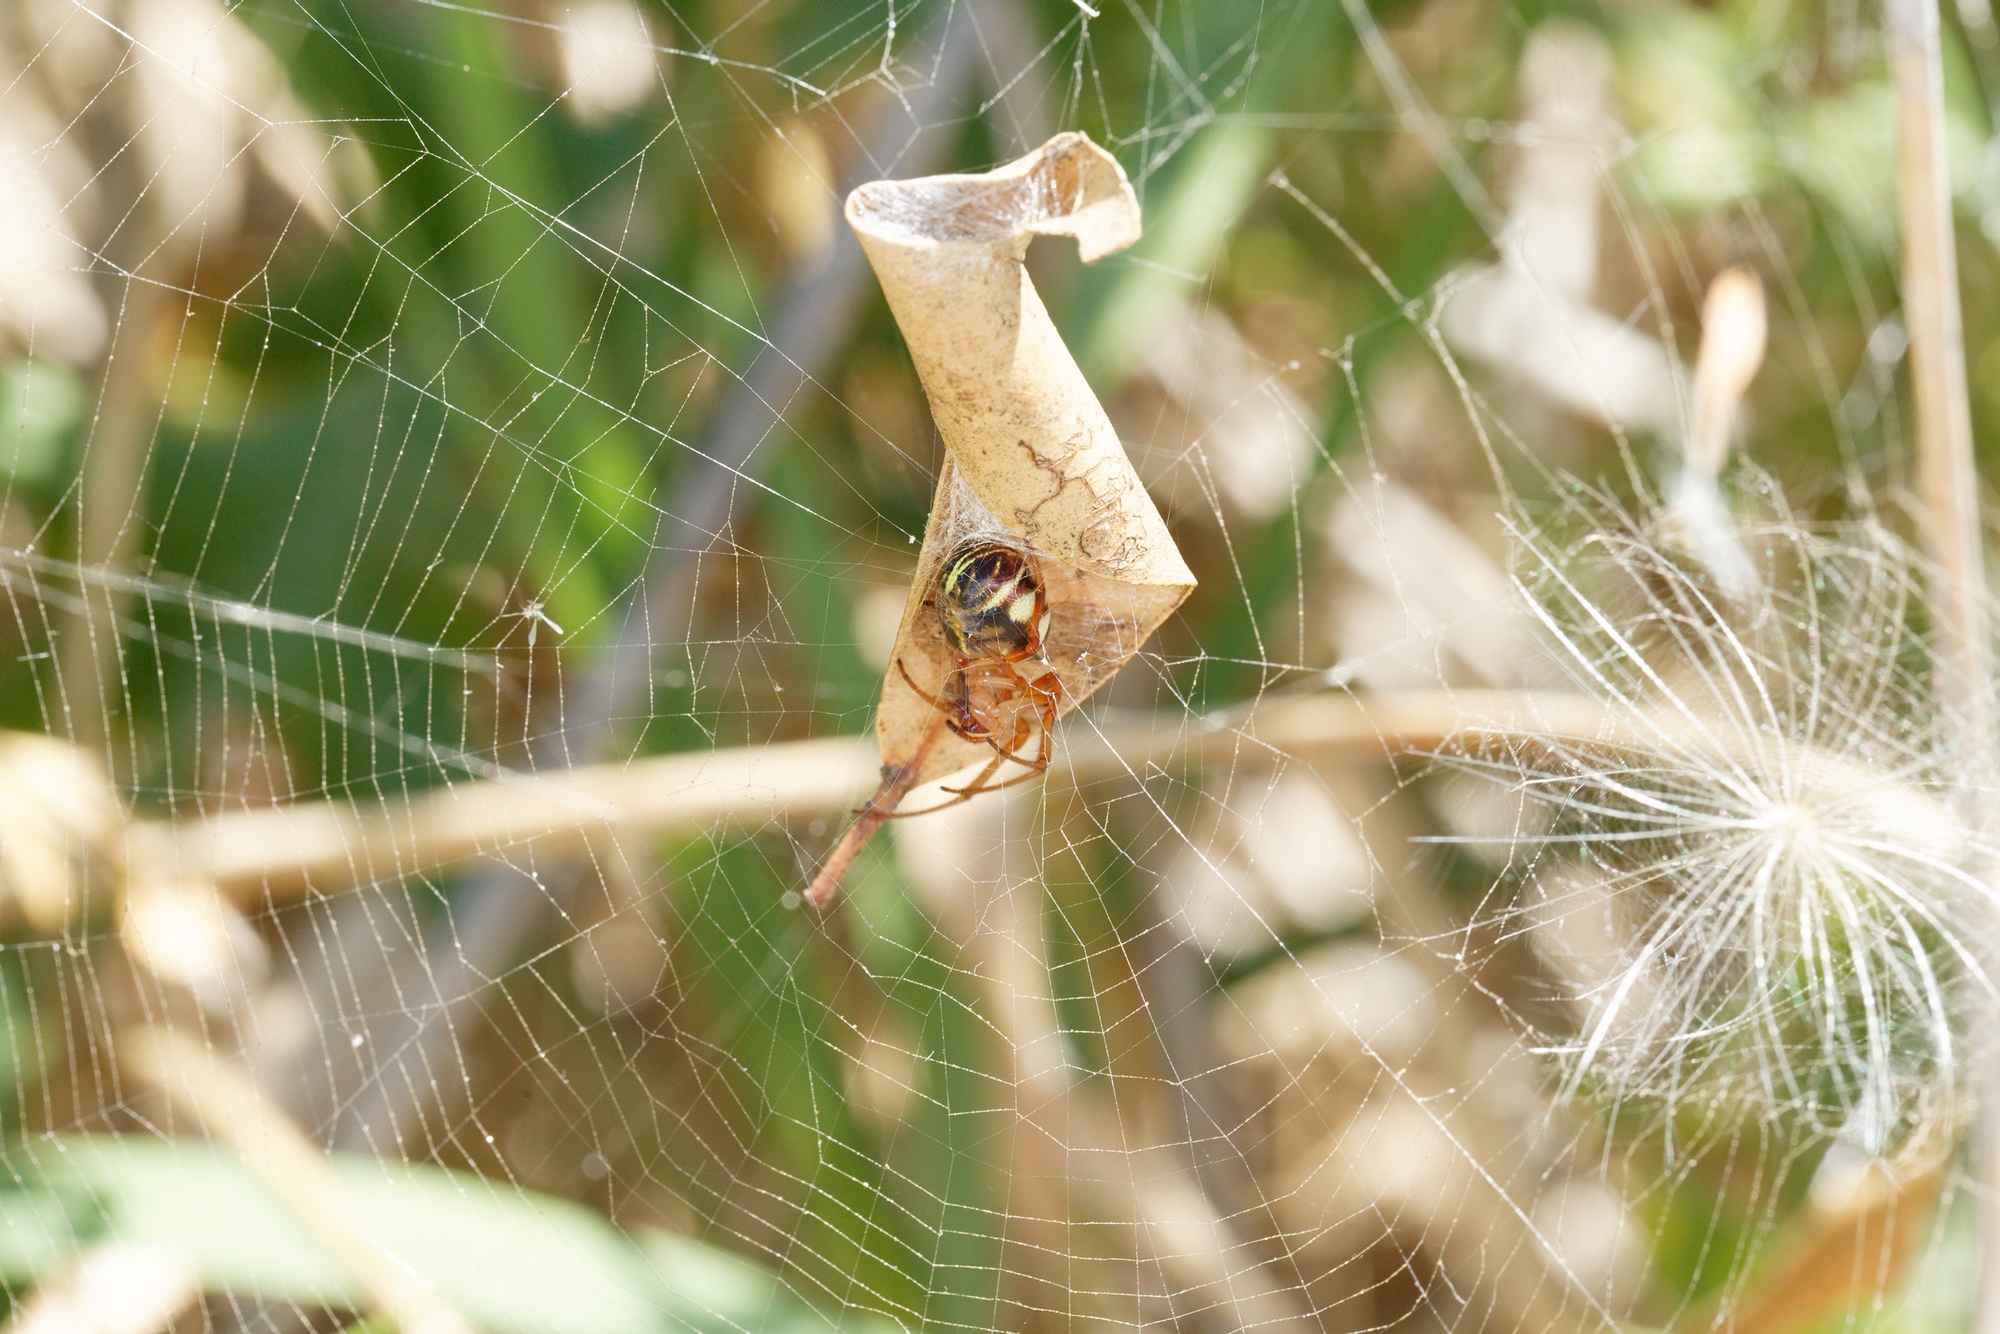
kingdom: Animalia
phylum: Arthropoda
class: Arachnida
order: Araneae
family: Araneidae
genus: Phonognatha
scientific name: Phonognatha graeffei
